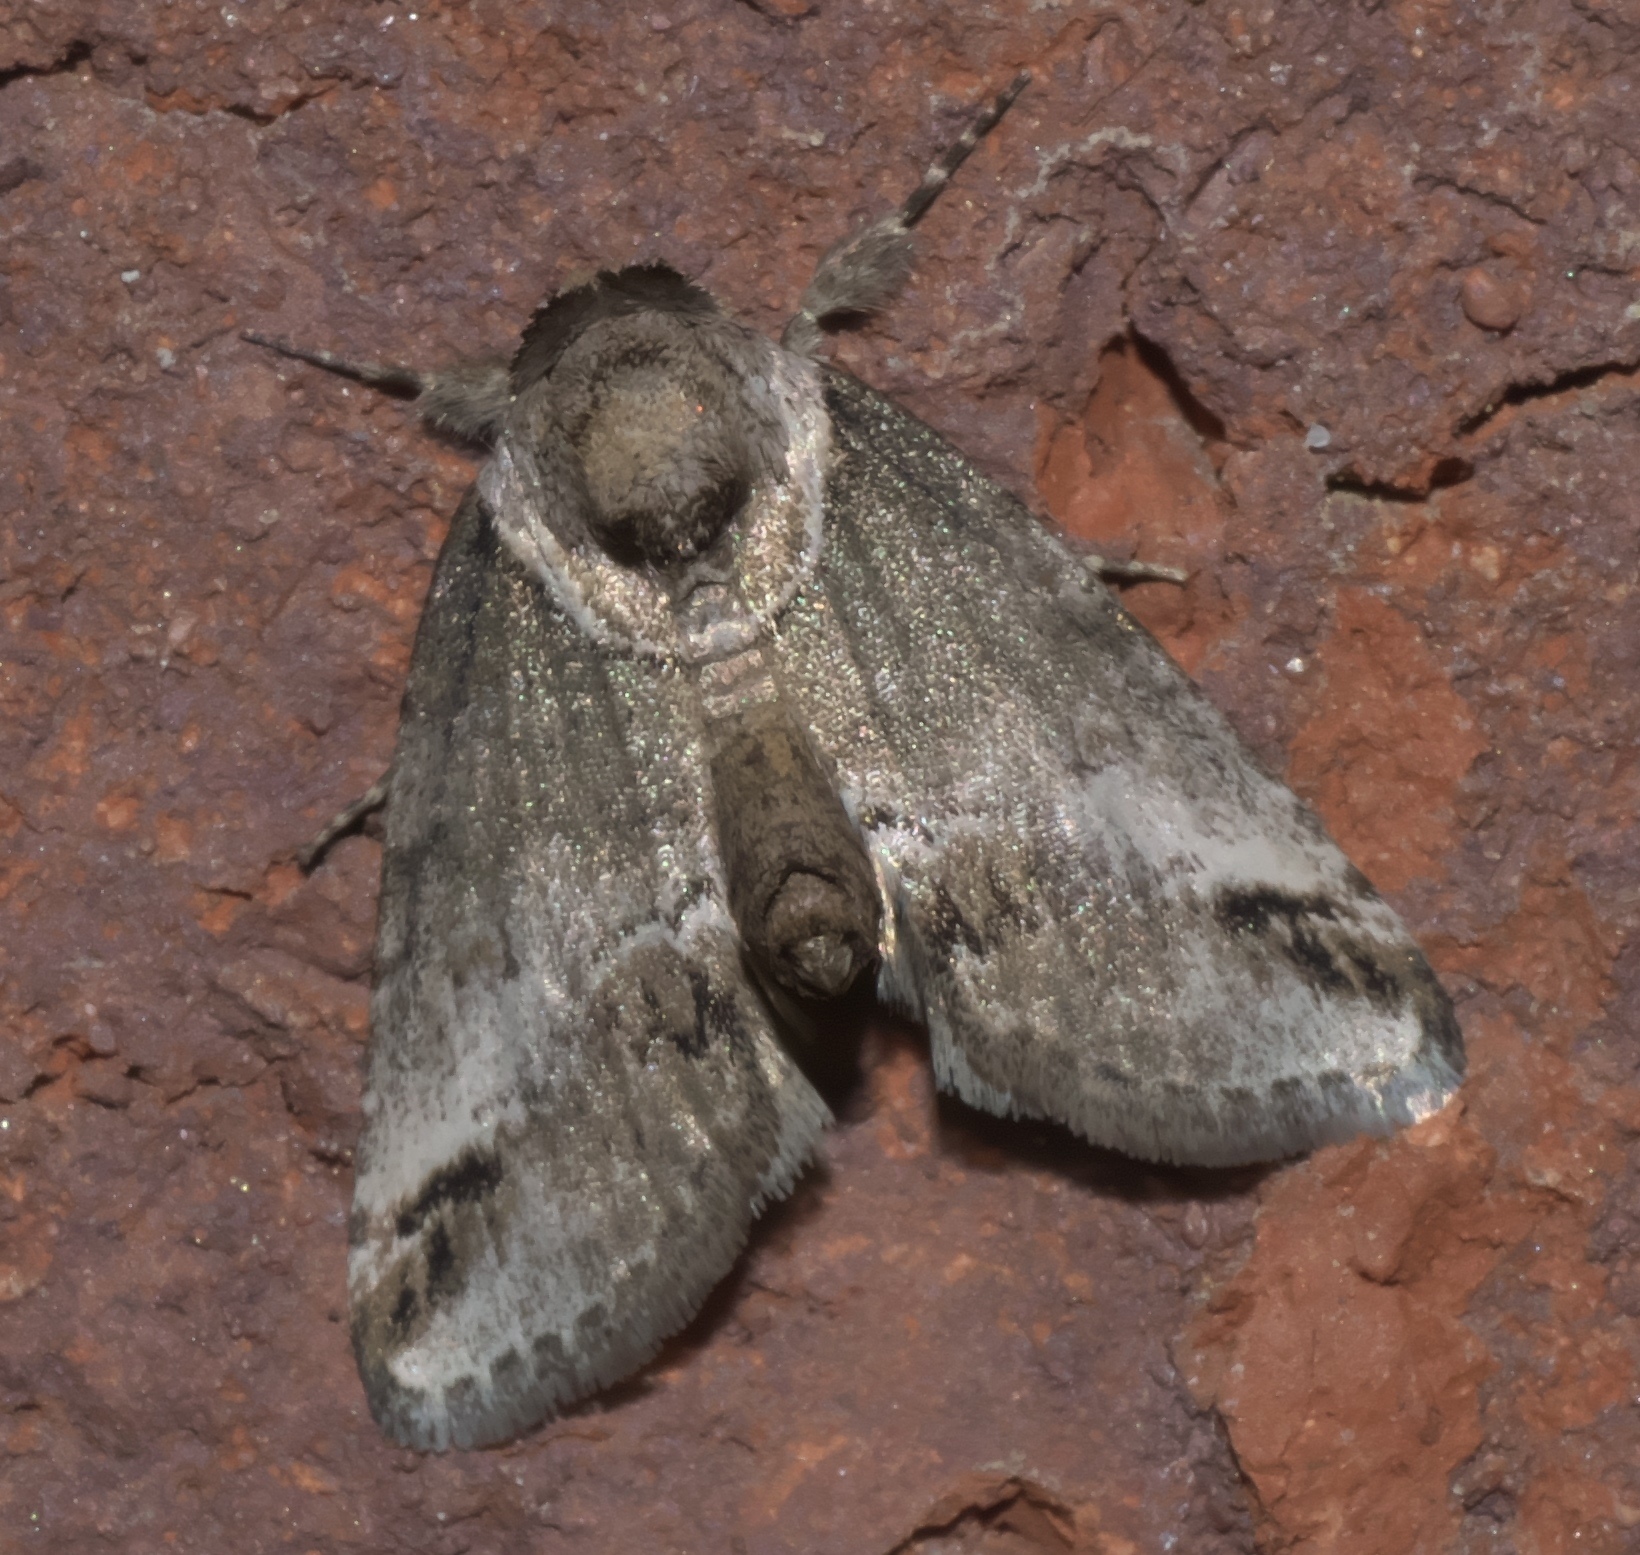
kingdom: Animalia
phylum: Arthropoda
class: Insecta
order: Lepidoptera
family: Nolidae
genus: Baileya
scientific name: Baileya australis
